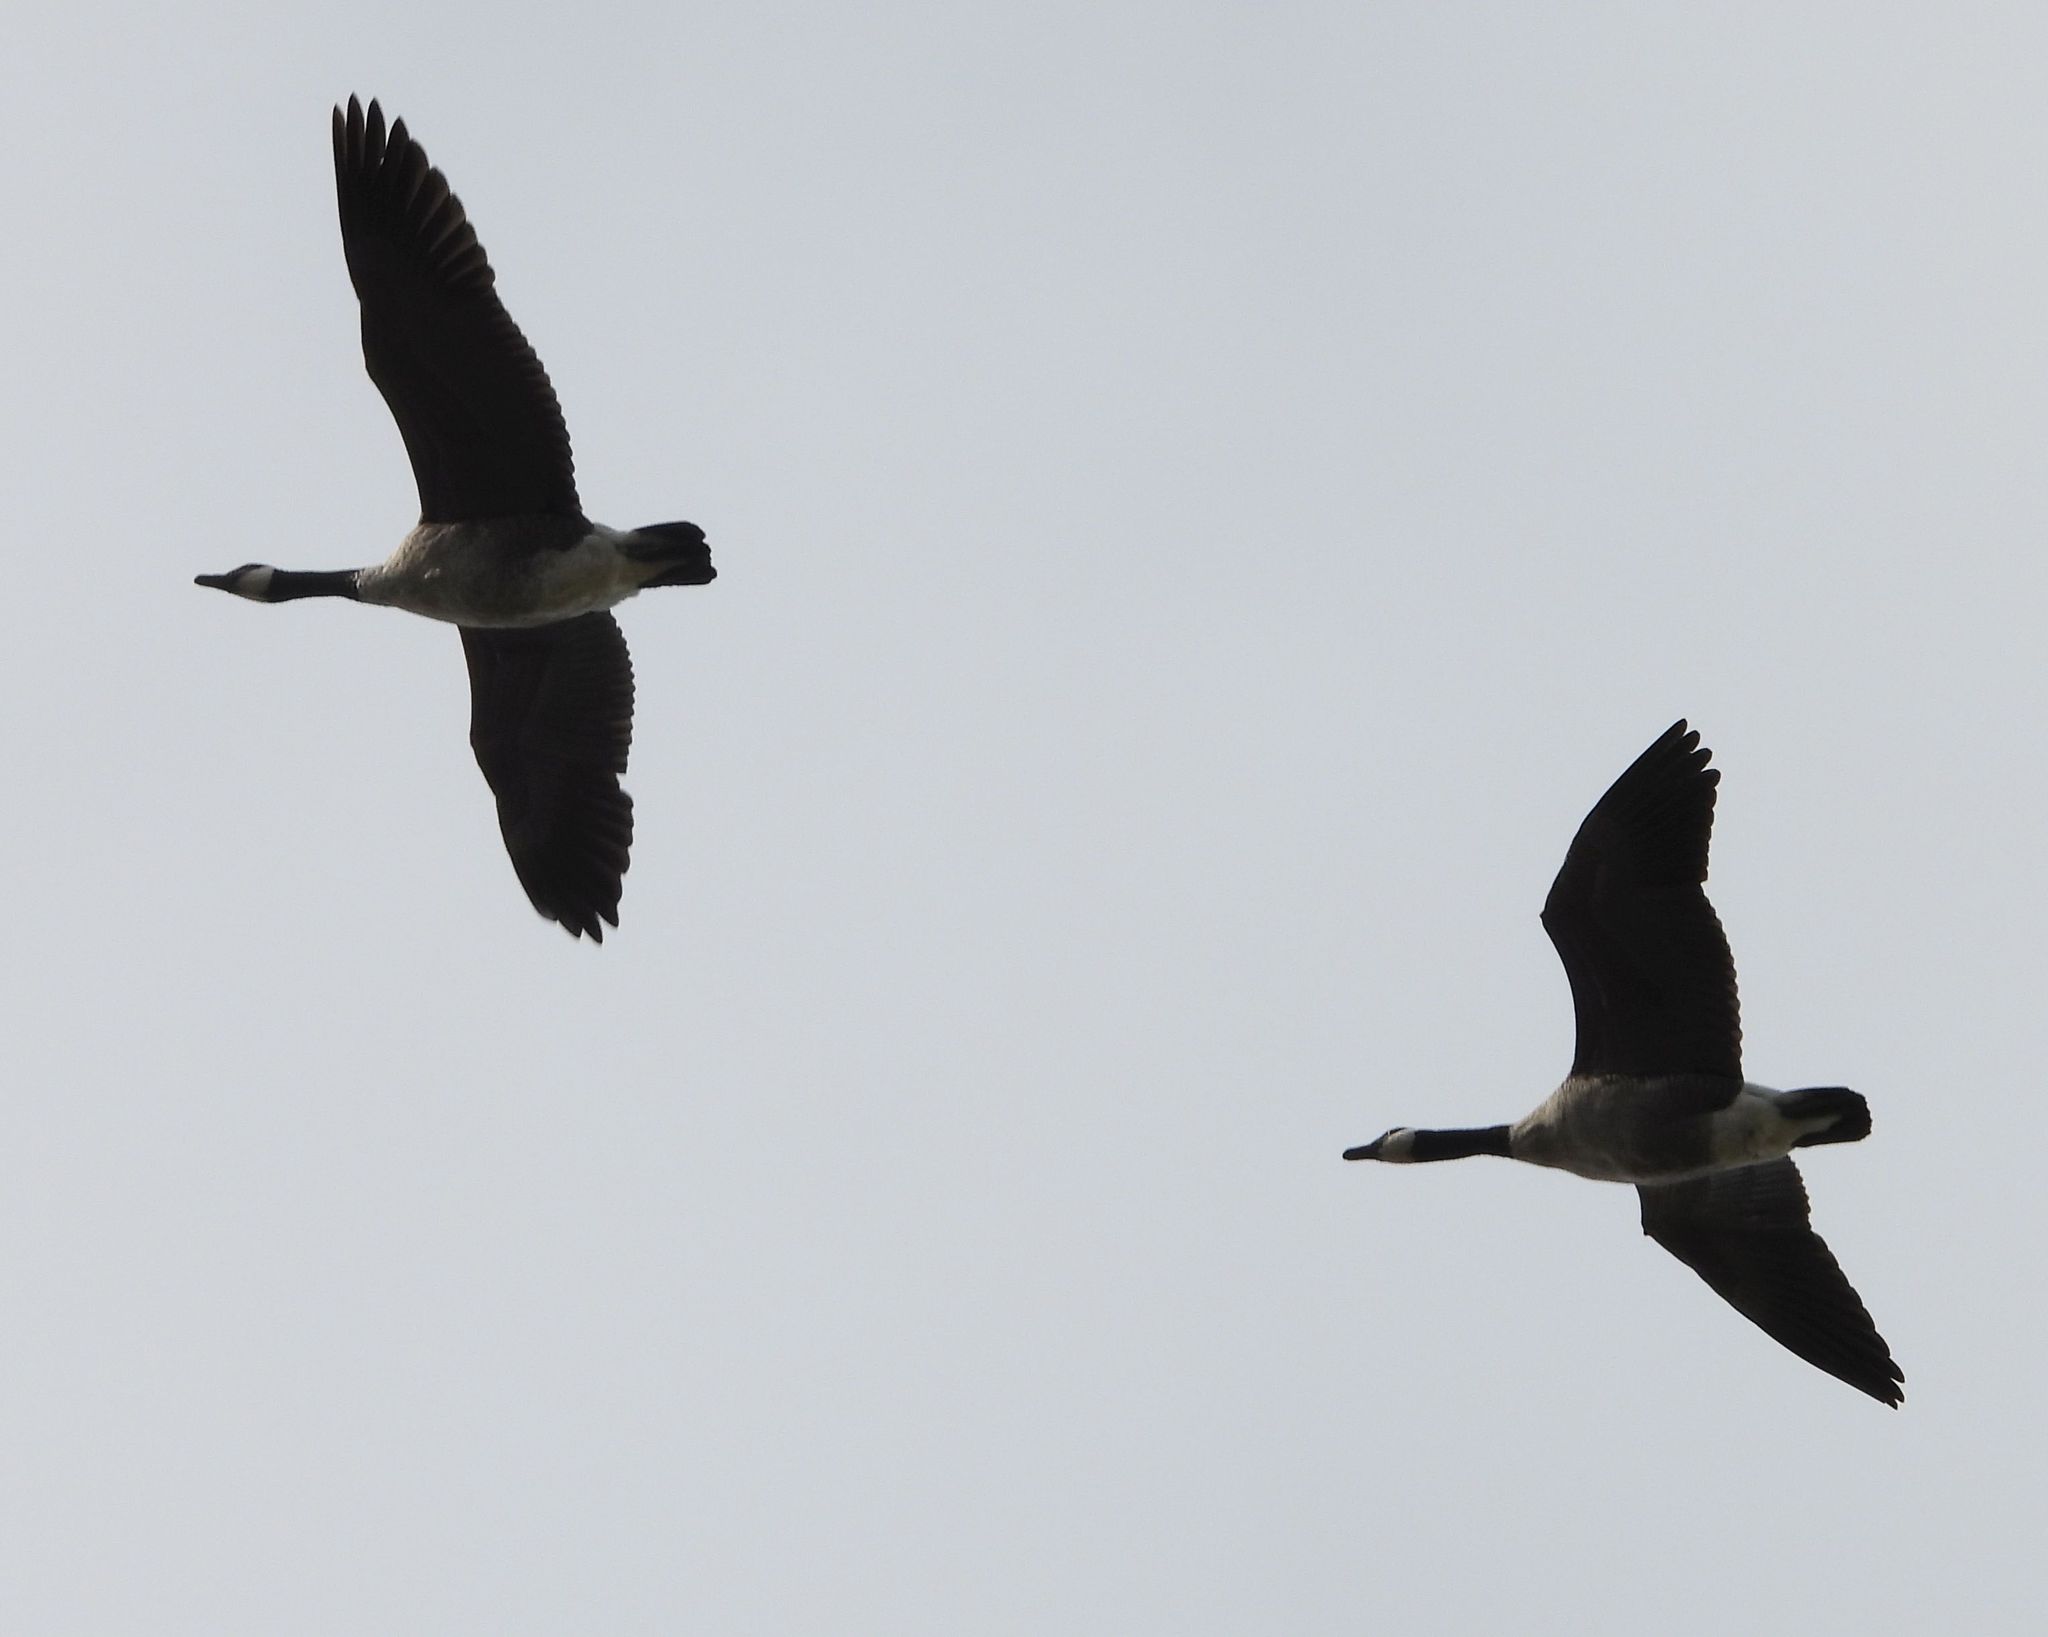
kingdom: Animalia
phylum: Chordata
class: Aves
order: Anseriformes
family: Anatidae
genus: Branta
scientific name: Branta canadensis
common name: Canada goose
